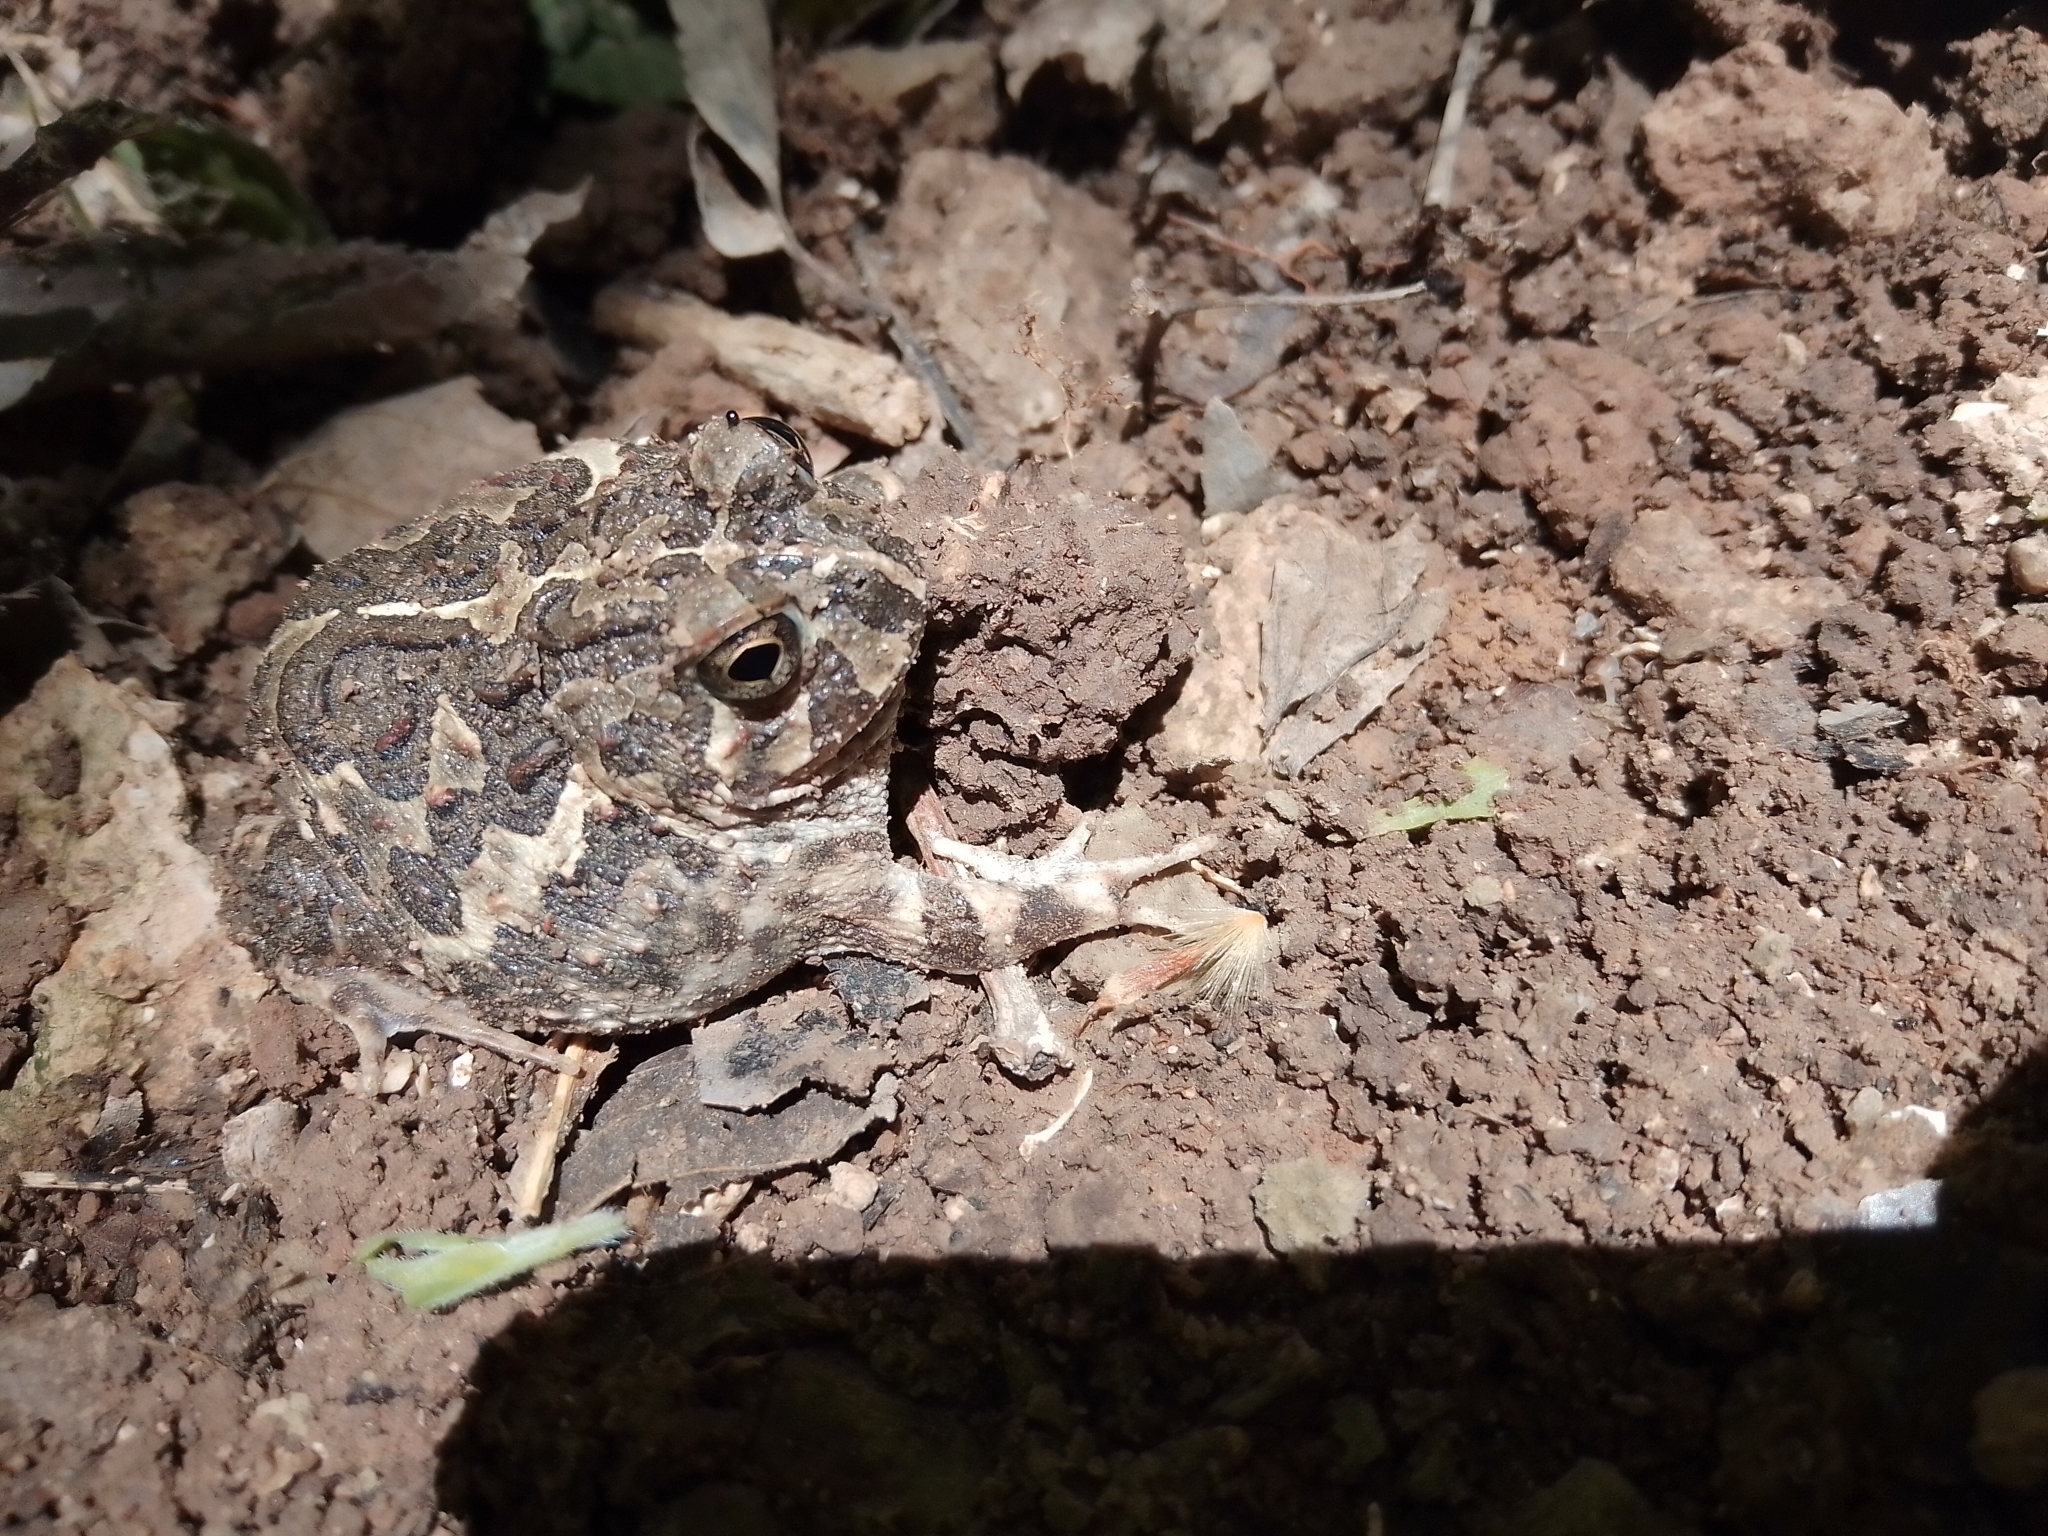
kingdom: Animalia
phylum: Chordata
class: Amphibia
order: Anura
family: Odontophrynidae
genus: Odontophrynus
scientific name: Odontophrynus
